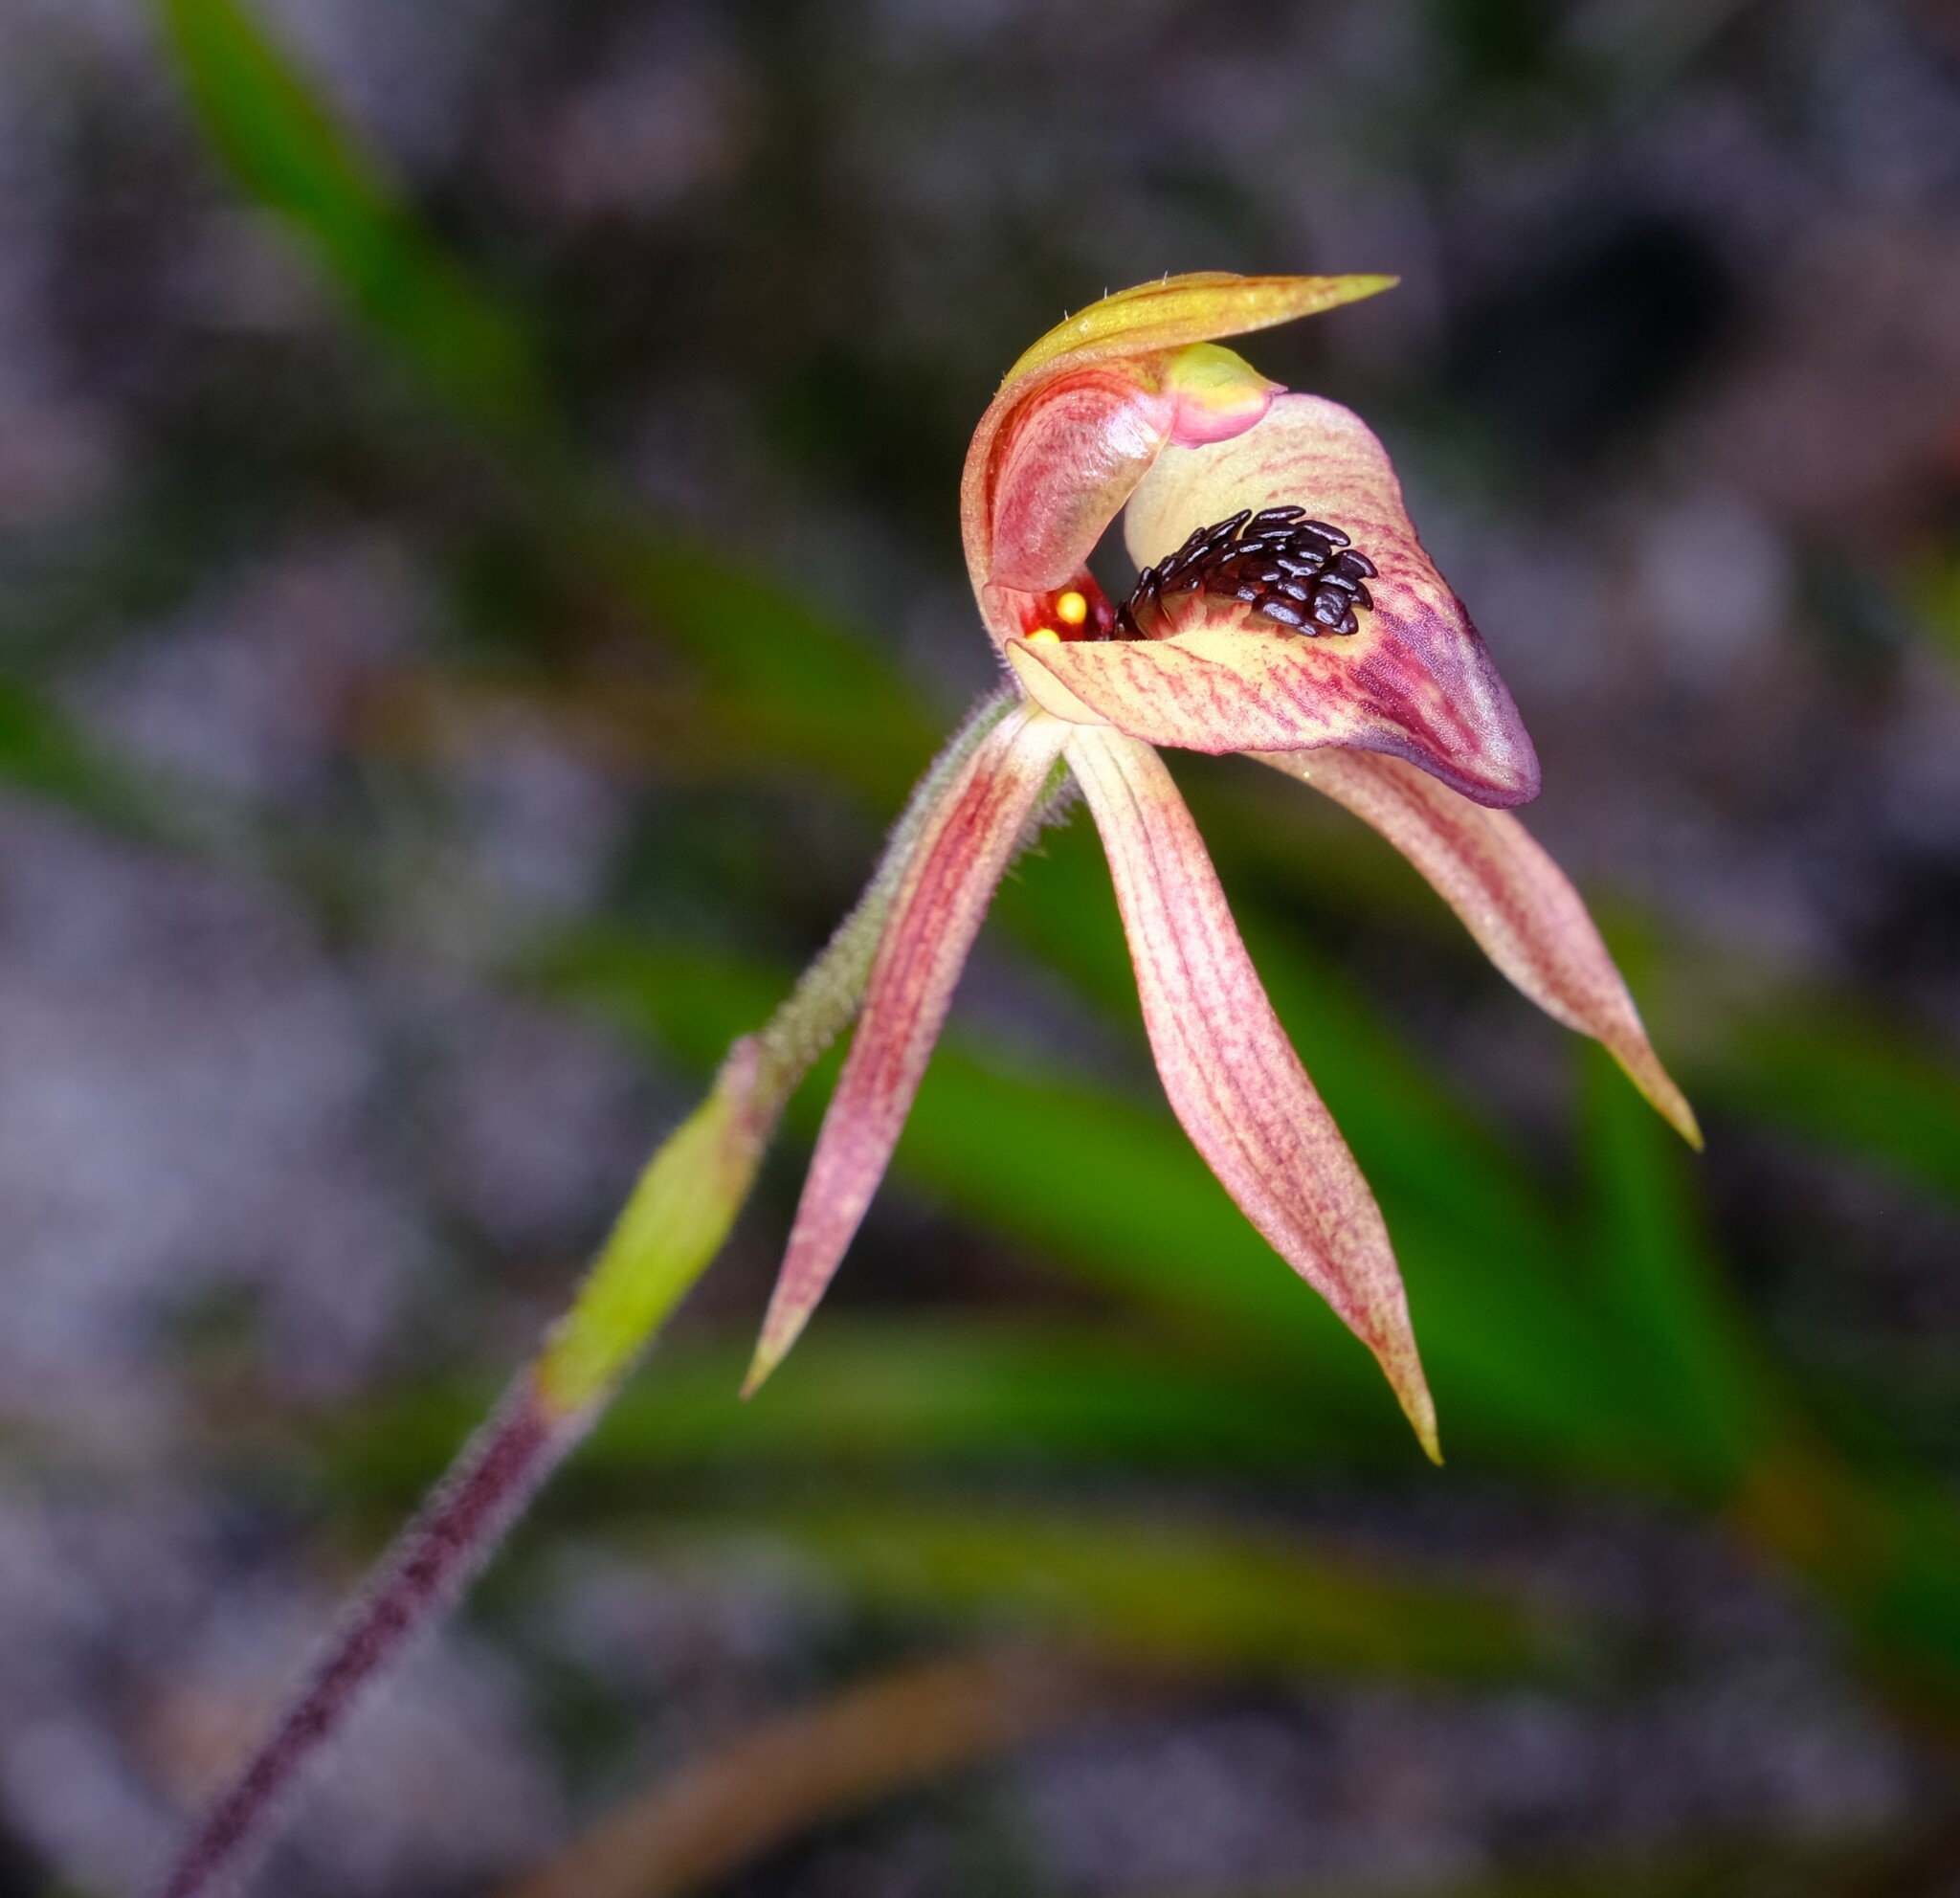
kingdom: Plantae
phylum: Tracheophyta
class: Liliopsida
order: Asparagales
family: Orchidaceae
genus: Caladenia
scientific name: Caladenia tessellata
